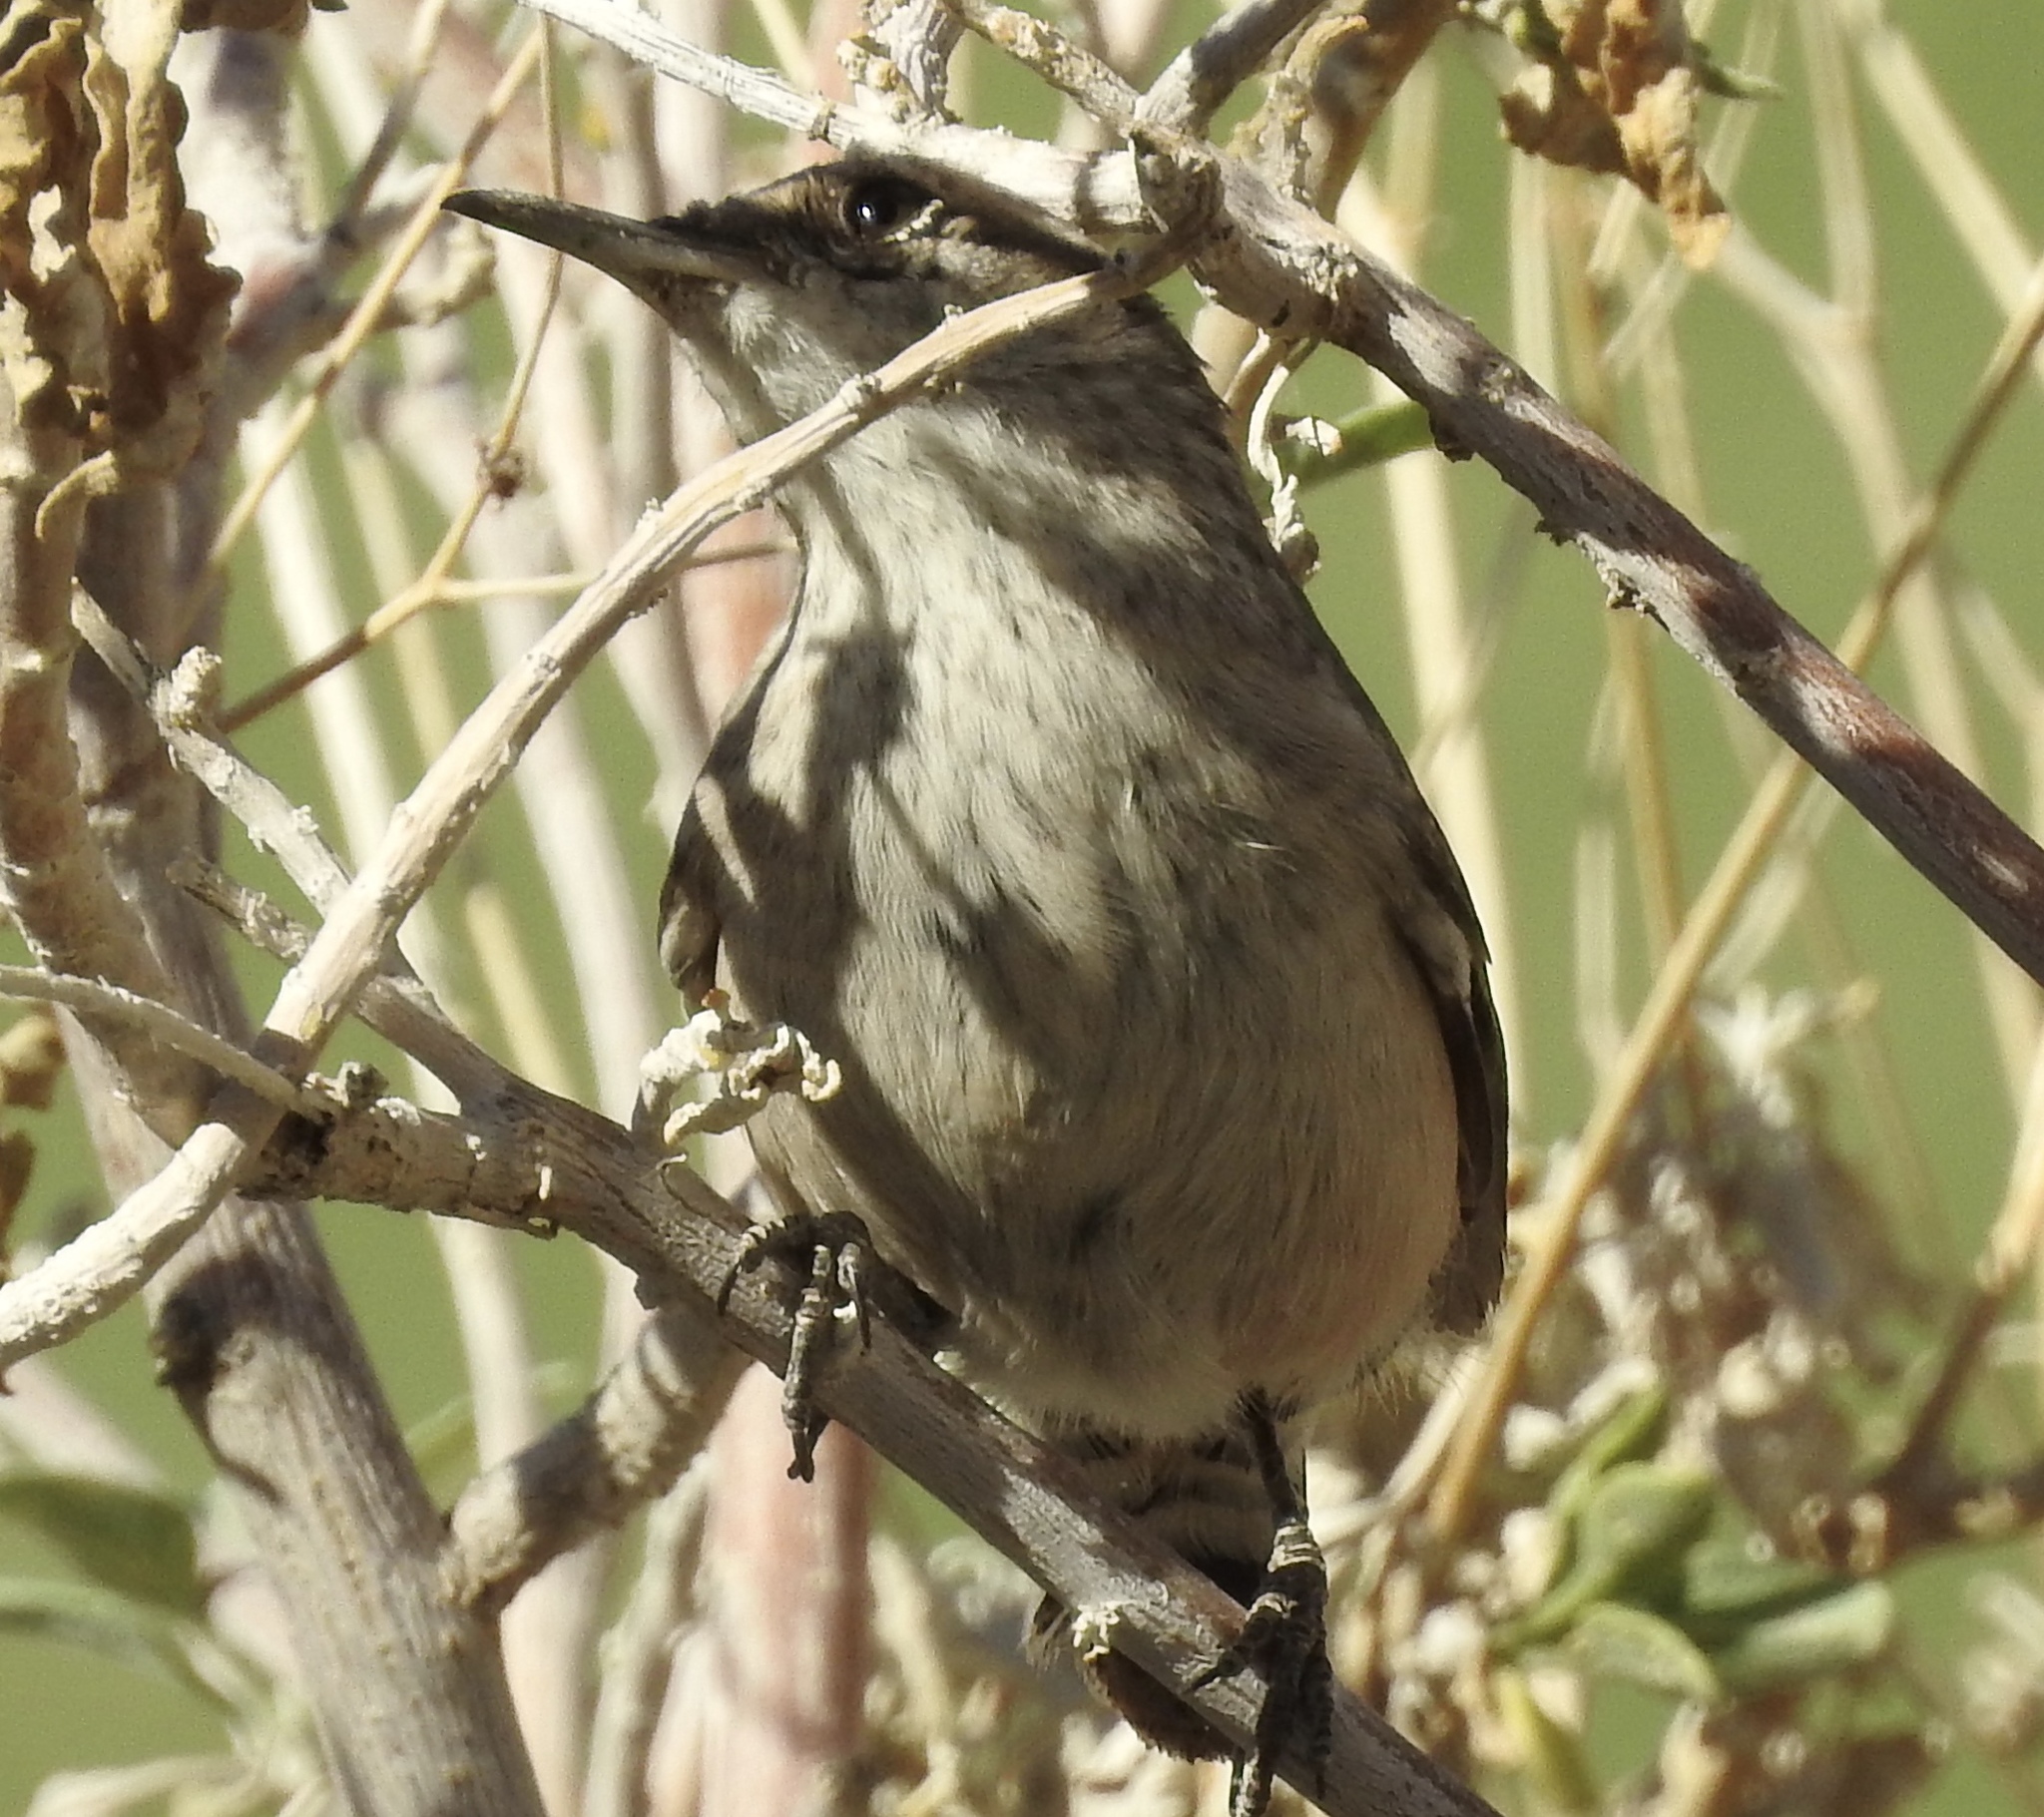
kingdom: Animalia
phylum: Chordata
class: Aves
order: Passeriformes
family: Troglodytidae
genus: Campylorhynchus
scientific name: Campylorhynchus brunneicapillus
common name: Cactus wren
